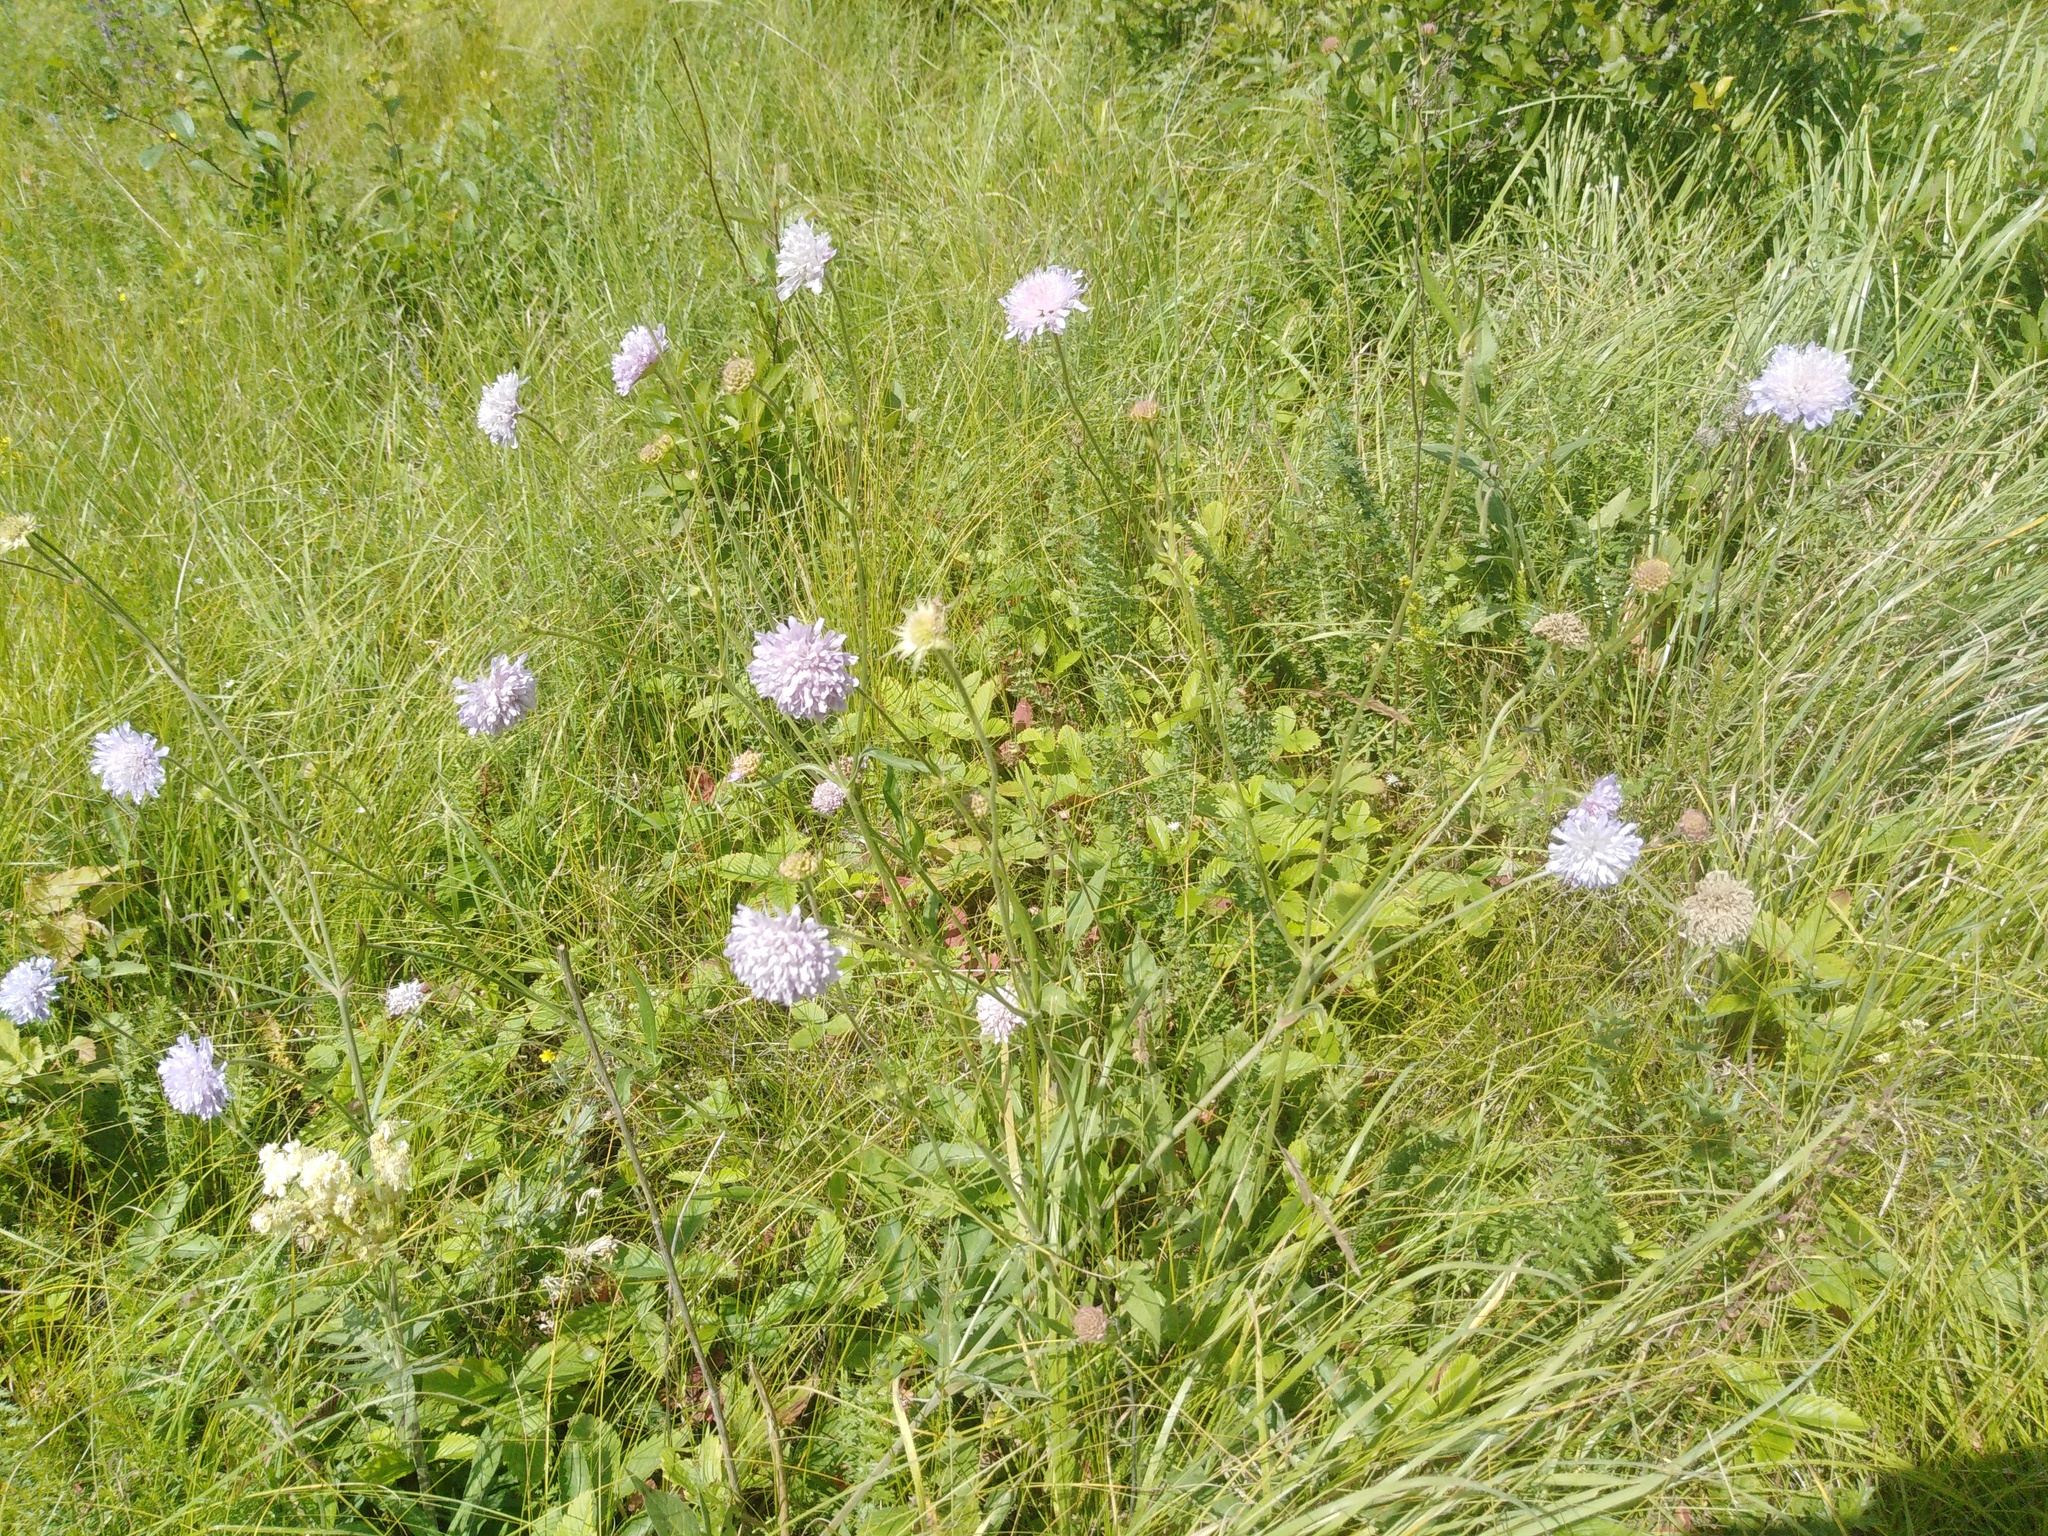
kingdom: Plantae
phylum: Tracheophyta
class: Magnoliopsida
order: Dipsacales
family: Caprifoliaceae
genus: Knautia
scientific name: Knautia arvensis
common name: Field scabiosa
